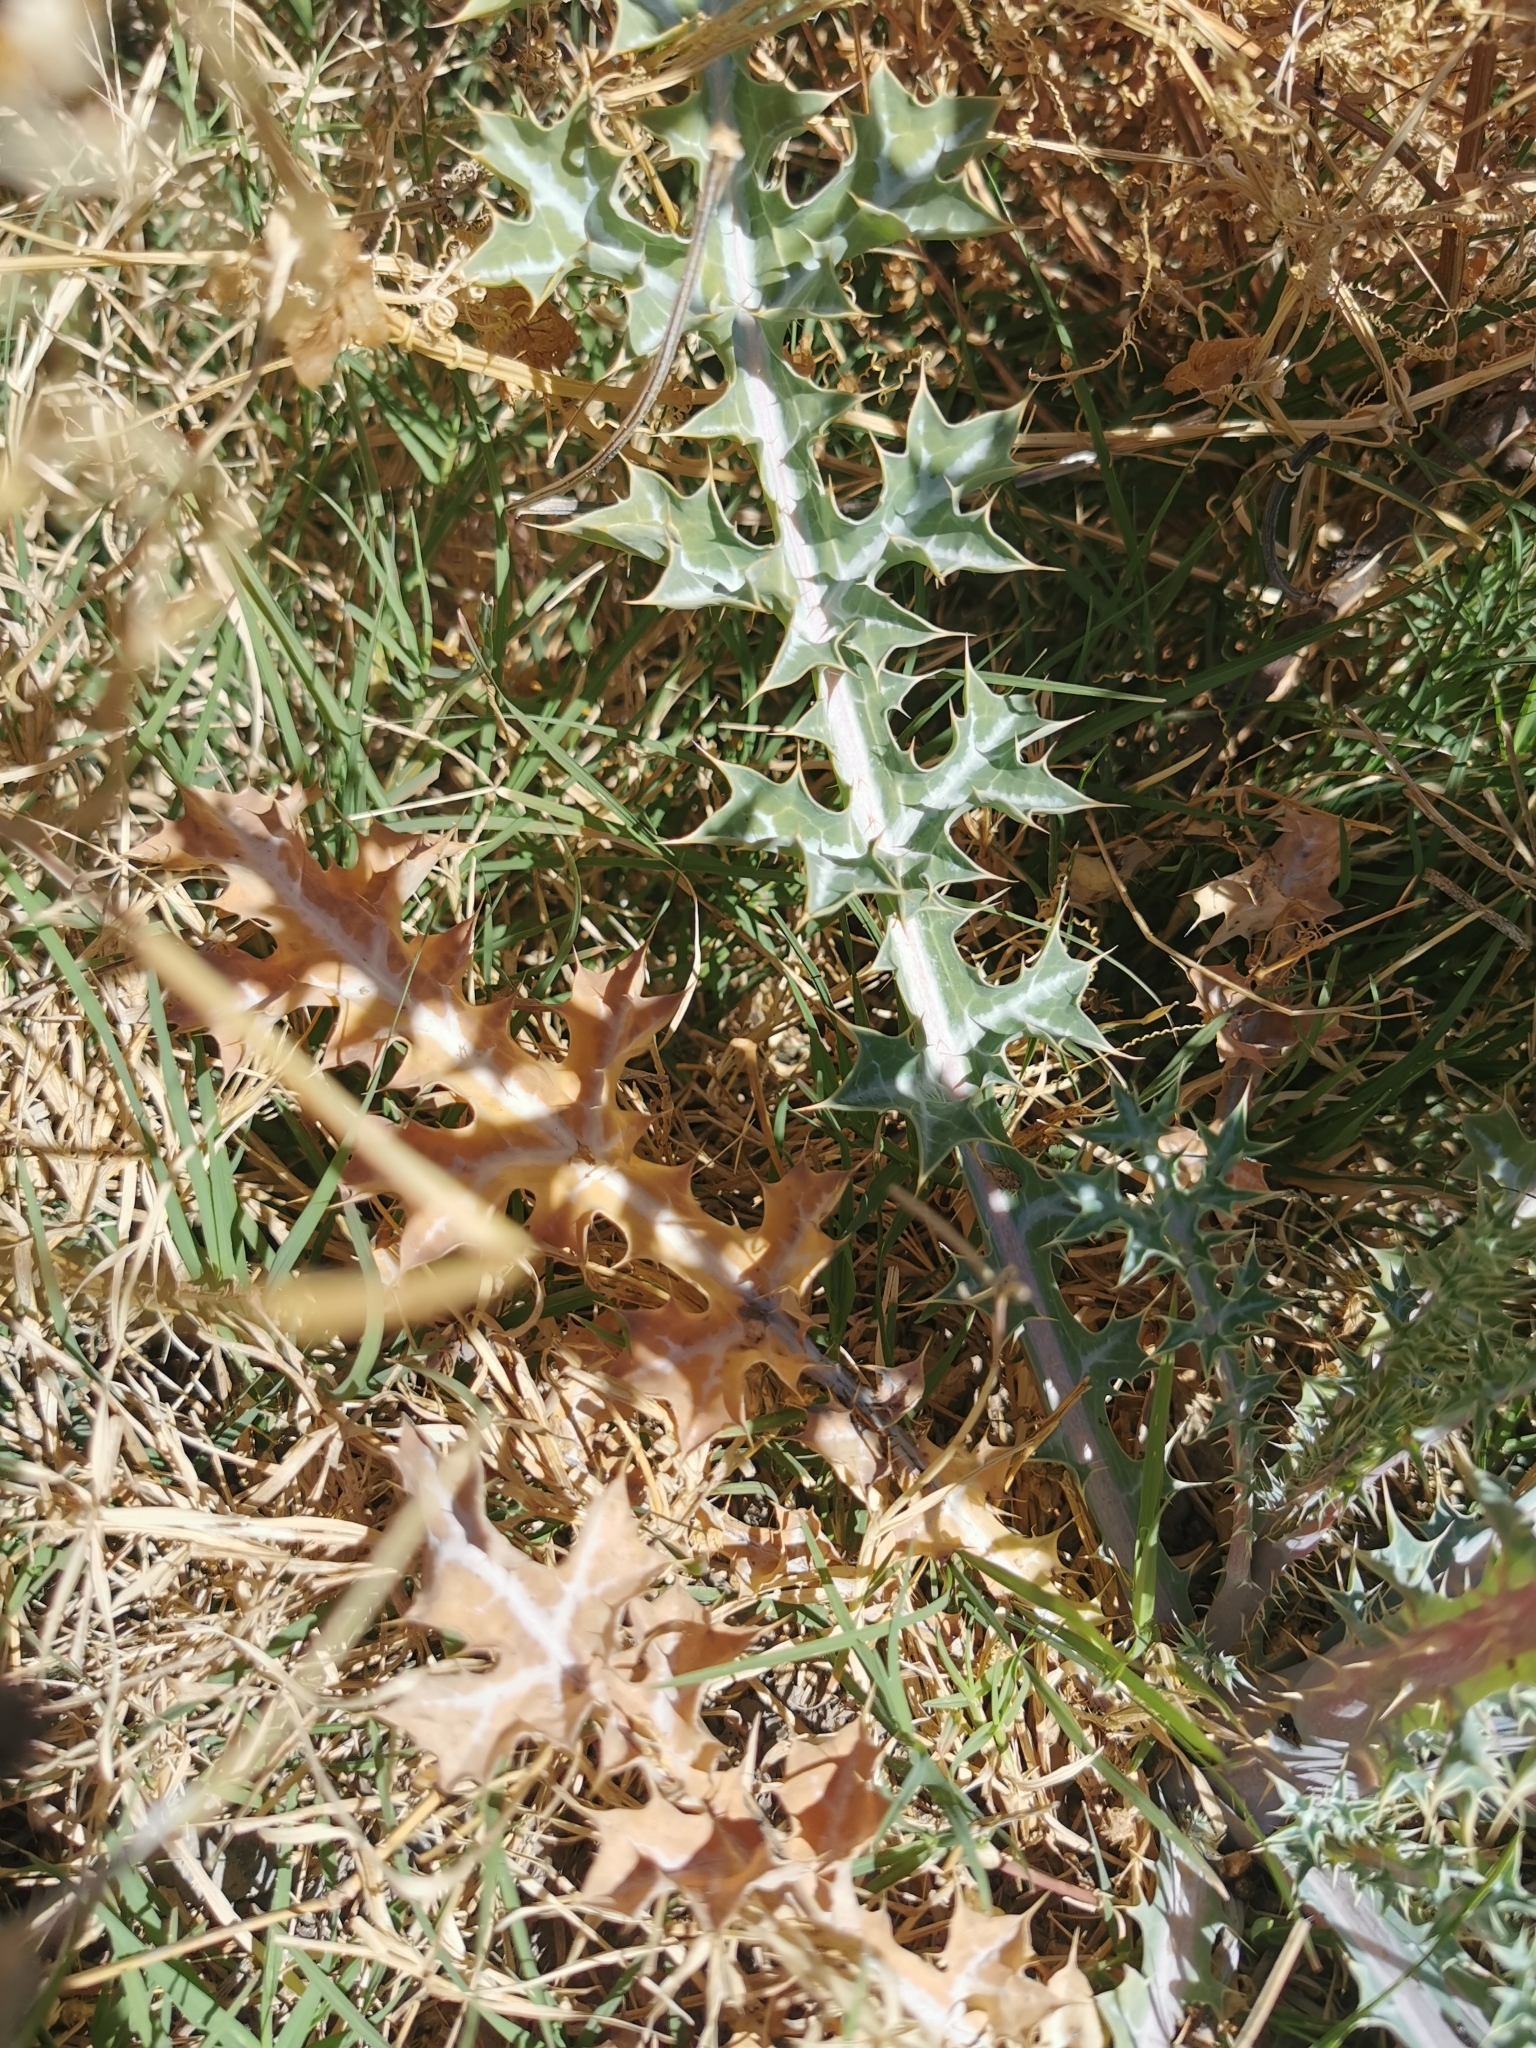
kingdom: Plantae
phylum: Tracheophyta
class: Magnoliopsida
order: Ranunculales
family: Papaveraceae
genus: Argemone
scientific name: Argemone ochroleuca
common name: White-flower mexican-poppy
